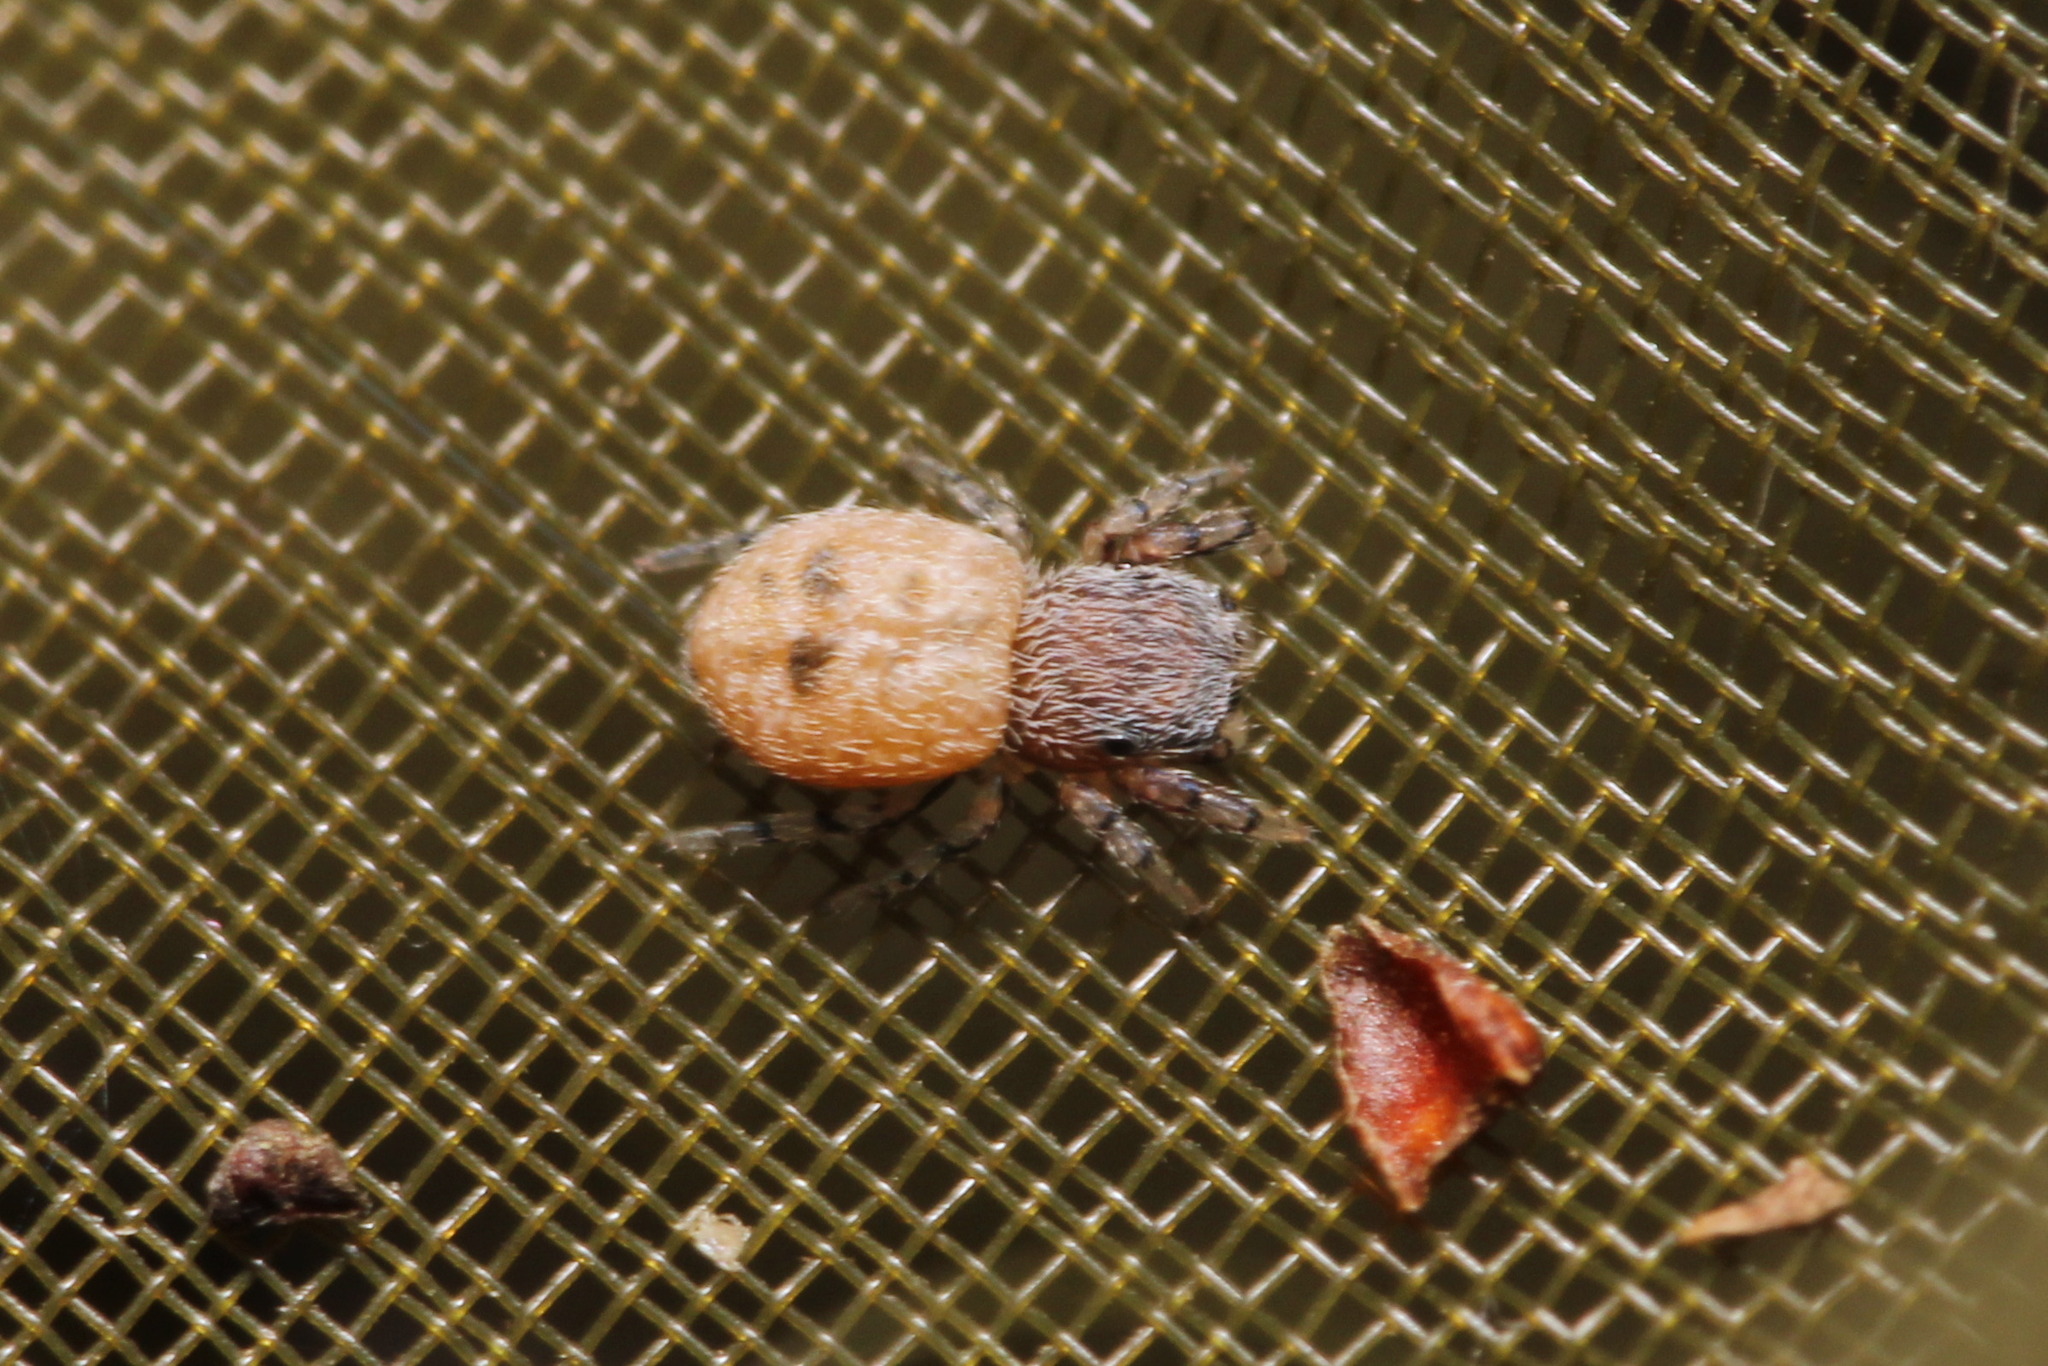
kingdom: Animalia
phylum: Arthropoda
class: Arachnida
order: Araneae
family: Salticidae
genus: Ballus
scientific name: Ballus chalybeius
